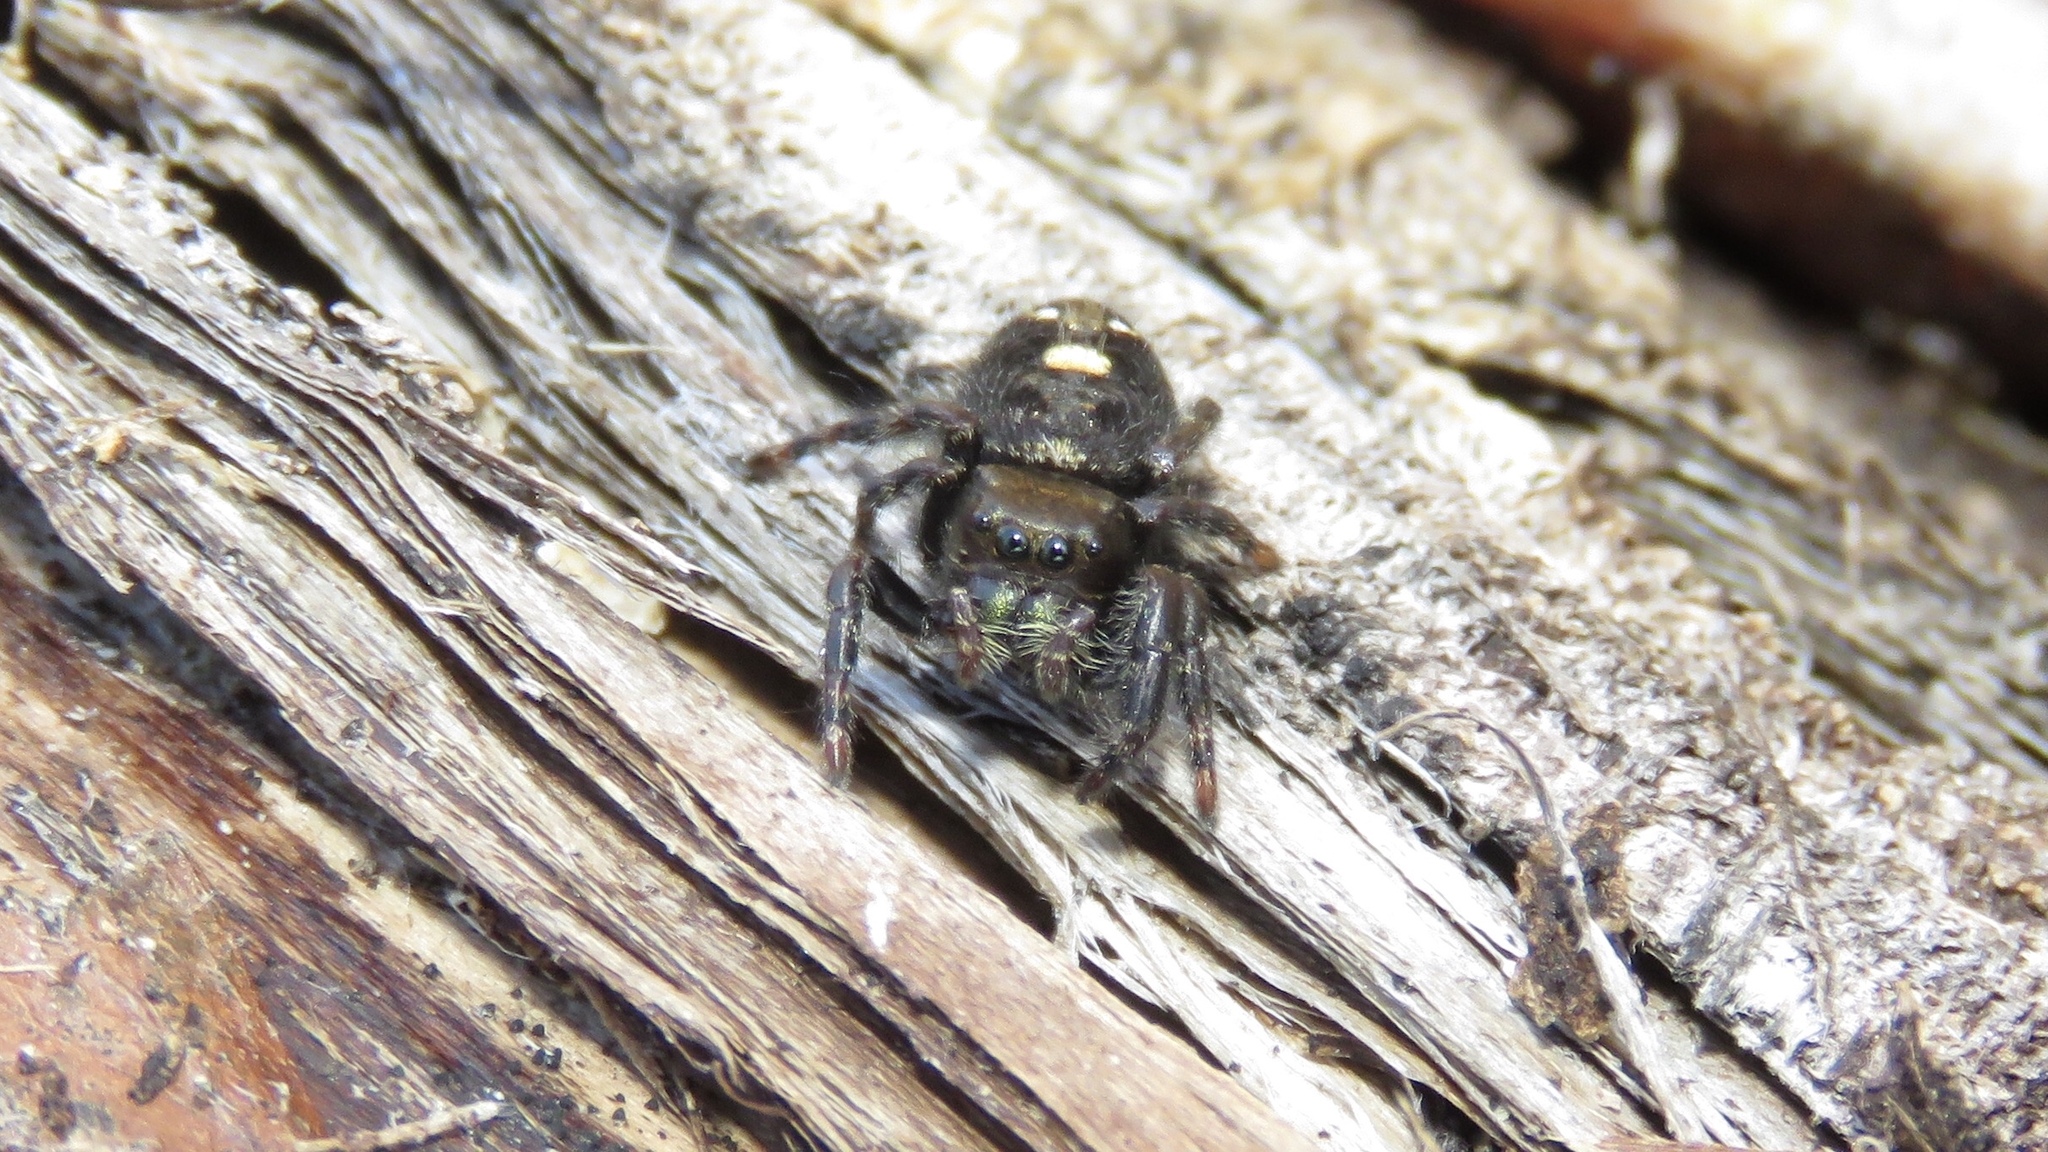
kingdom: Animalia
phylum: Arthropoda
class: Arachnida
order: Araneae
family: Salticidae
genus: Phidippus
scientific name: Phidippus audax
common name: Bold jumper
